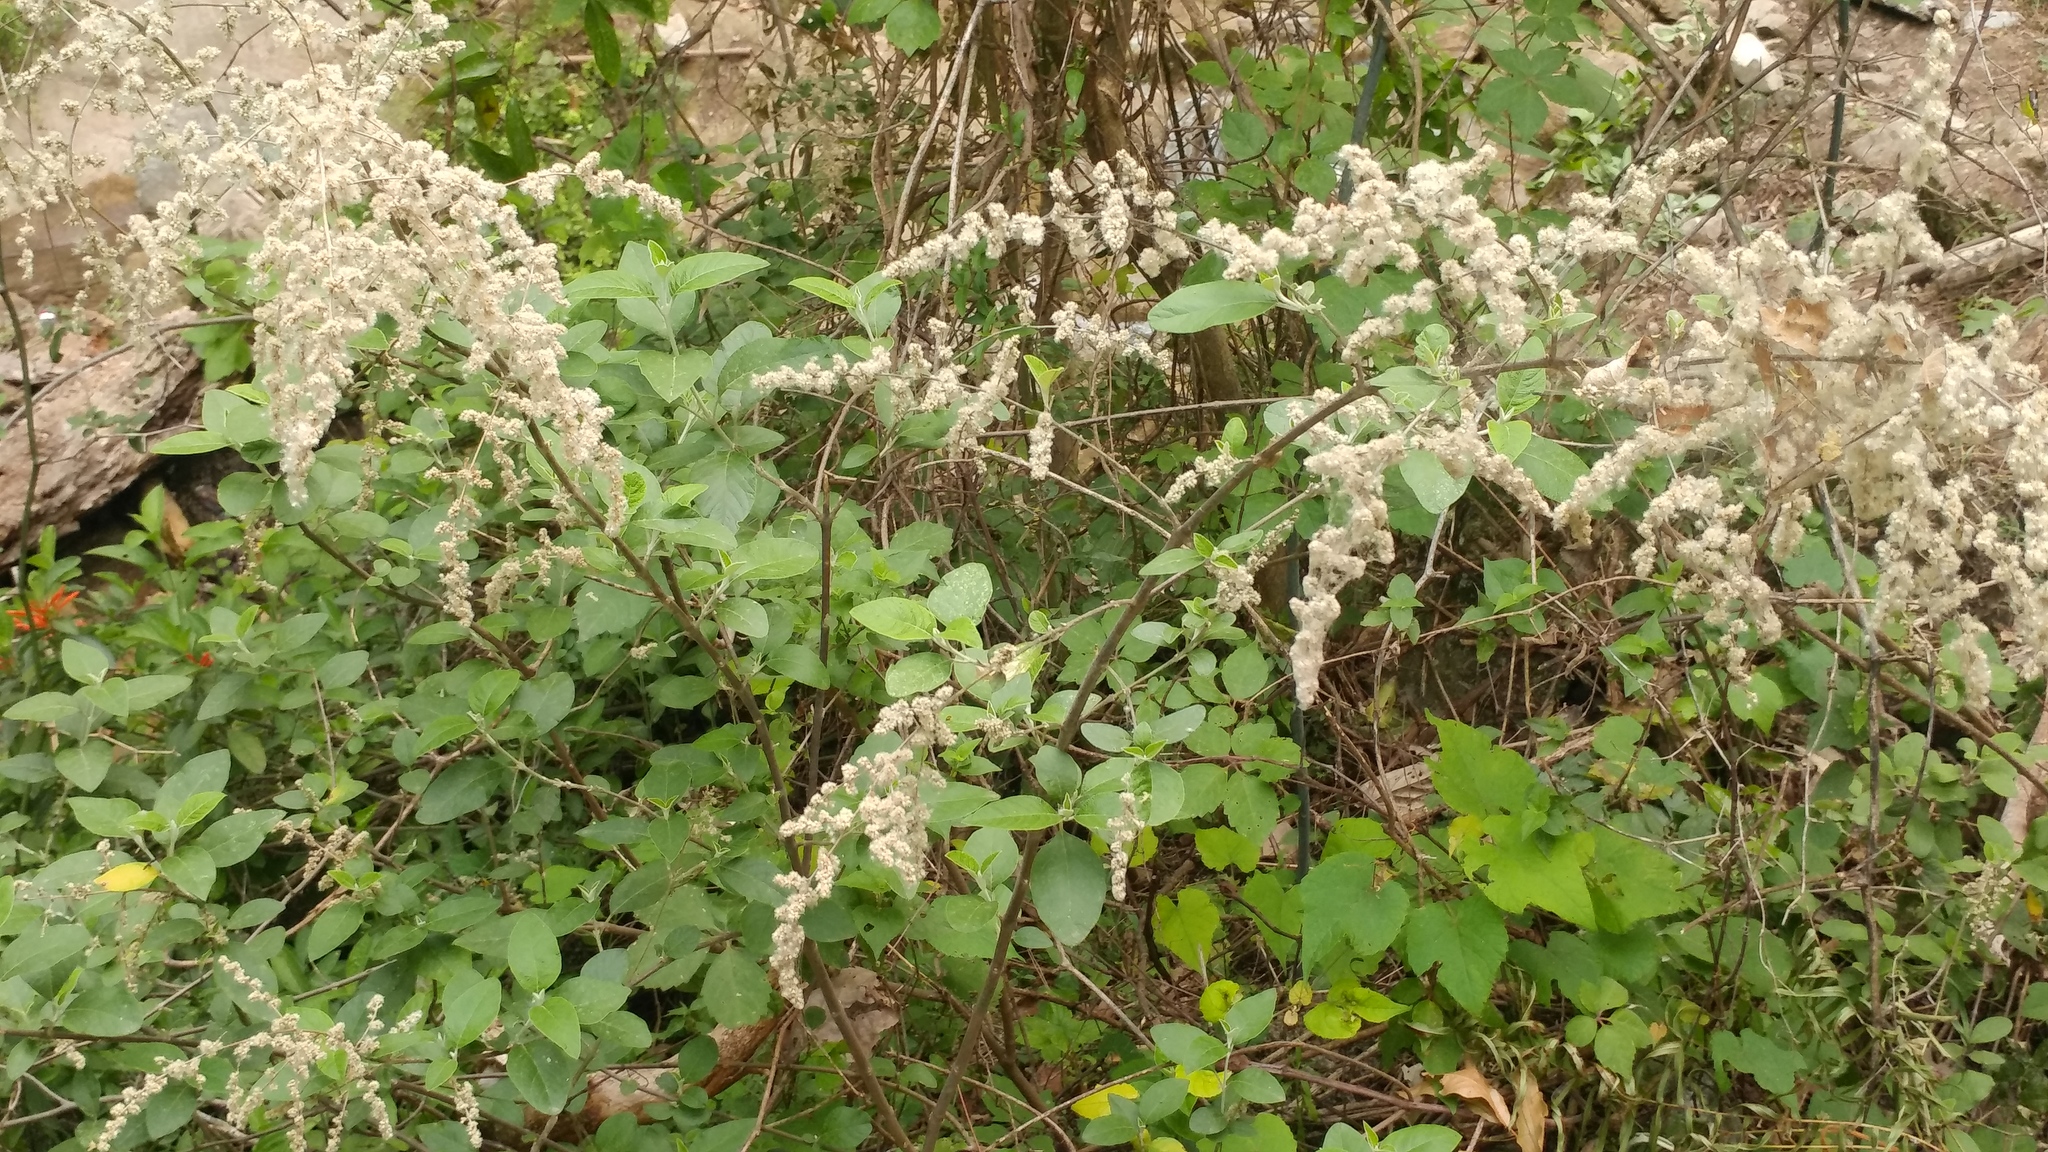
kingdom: Plantae
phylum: Tracheophyta
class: Magnoliopsida
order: Caryophyllales
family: Amaranthaceae
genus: Iresine
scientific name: Iresine orientalis
